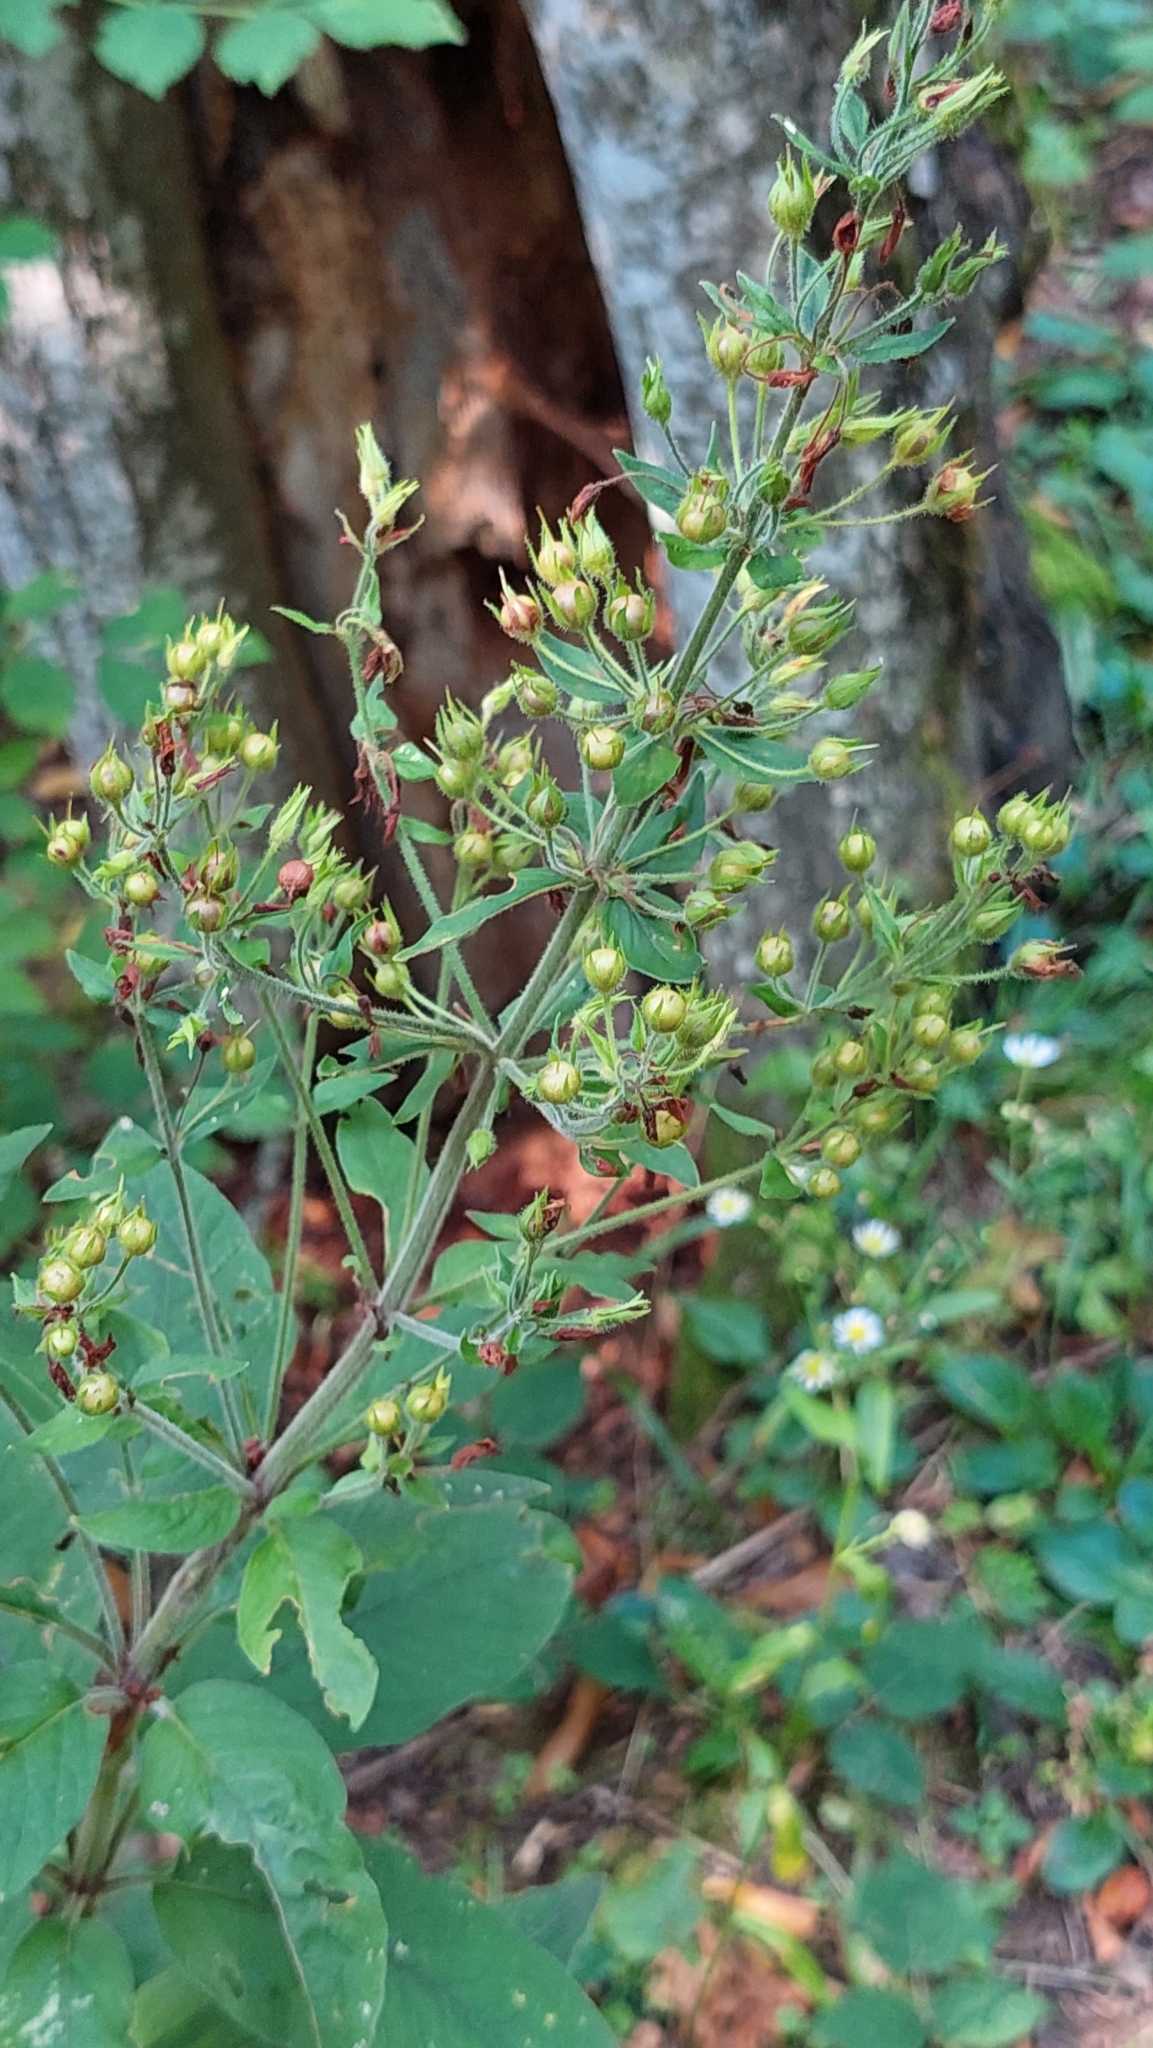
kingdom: Plantae
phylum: Tracheophyta
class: Magnoliopsida
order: Ericales
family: Primulaceae
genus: Lysimachia
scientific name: Lysimachia verticillaris
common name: Yellow loosestrife
